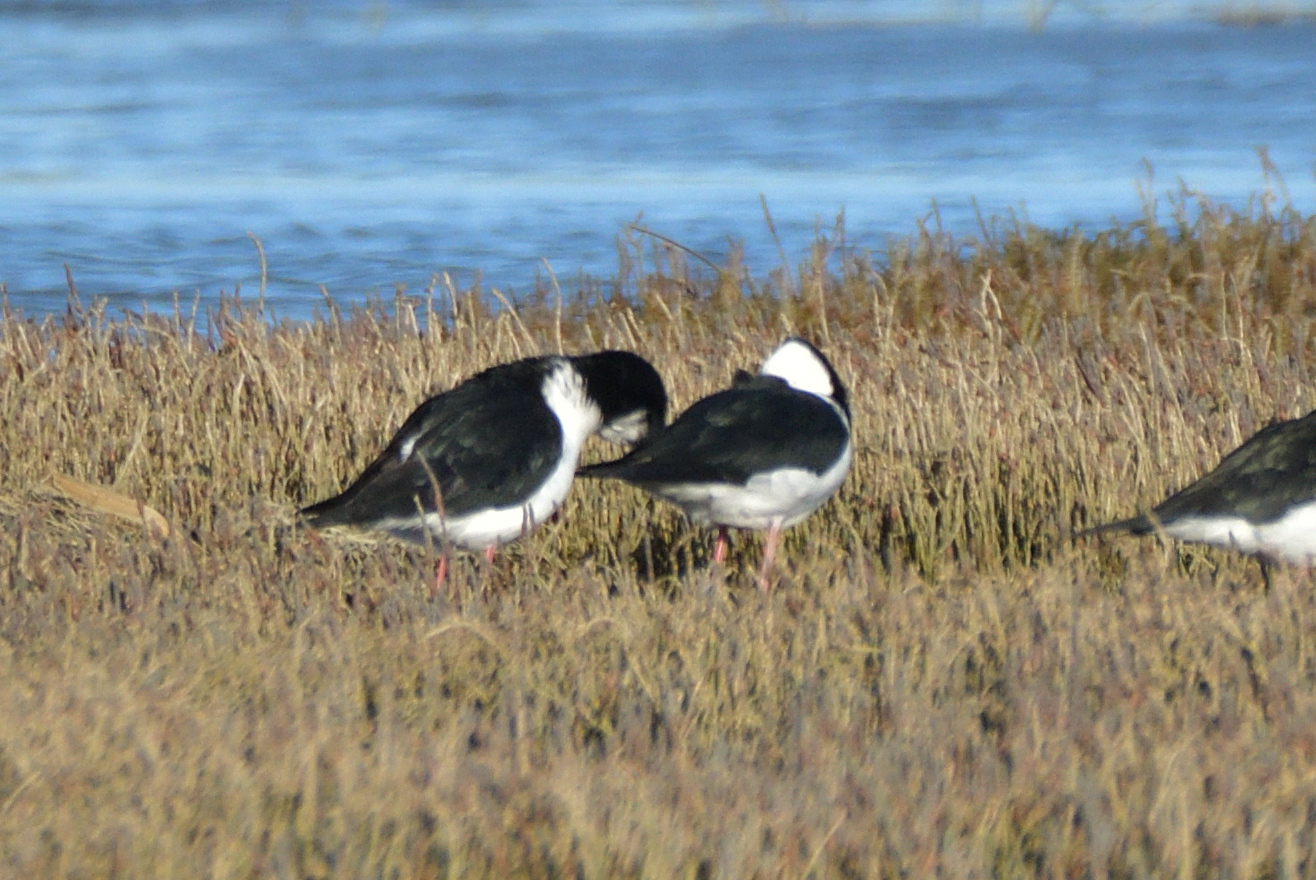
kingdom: Animalia
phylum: Chordata
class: Aves
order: Charadriiformes
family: Recurvirostridae
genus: Himantopus
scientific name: Himantopus leucocephalus
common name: White-headed stilt
